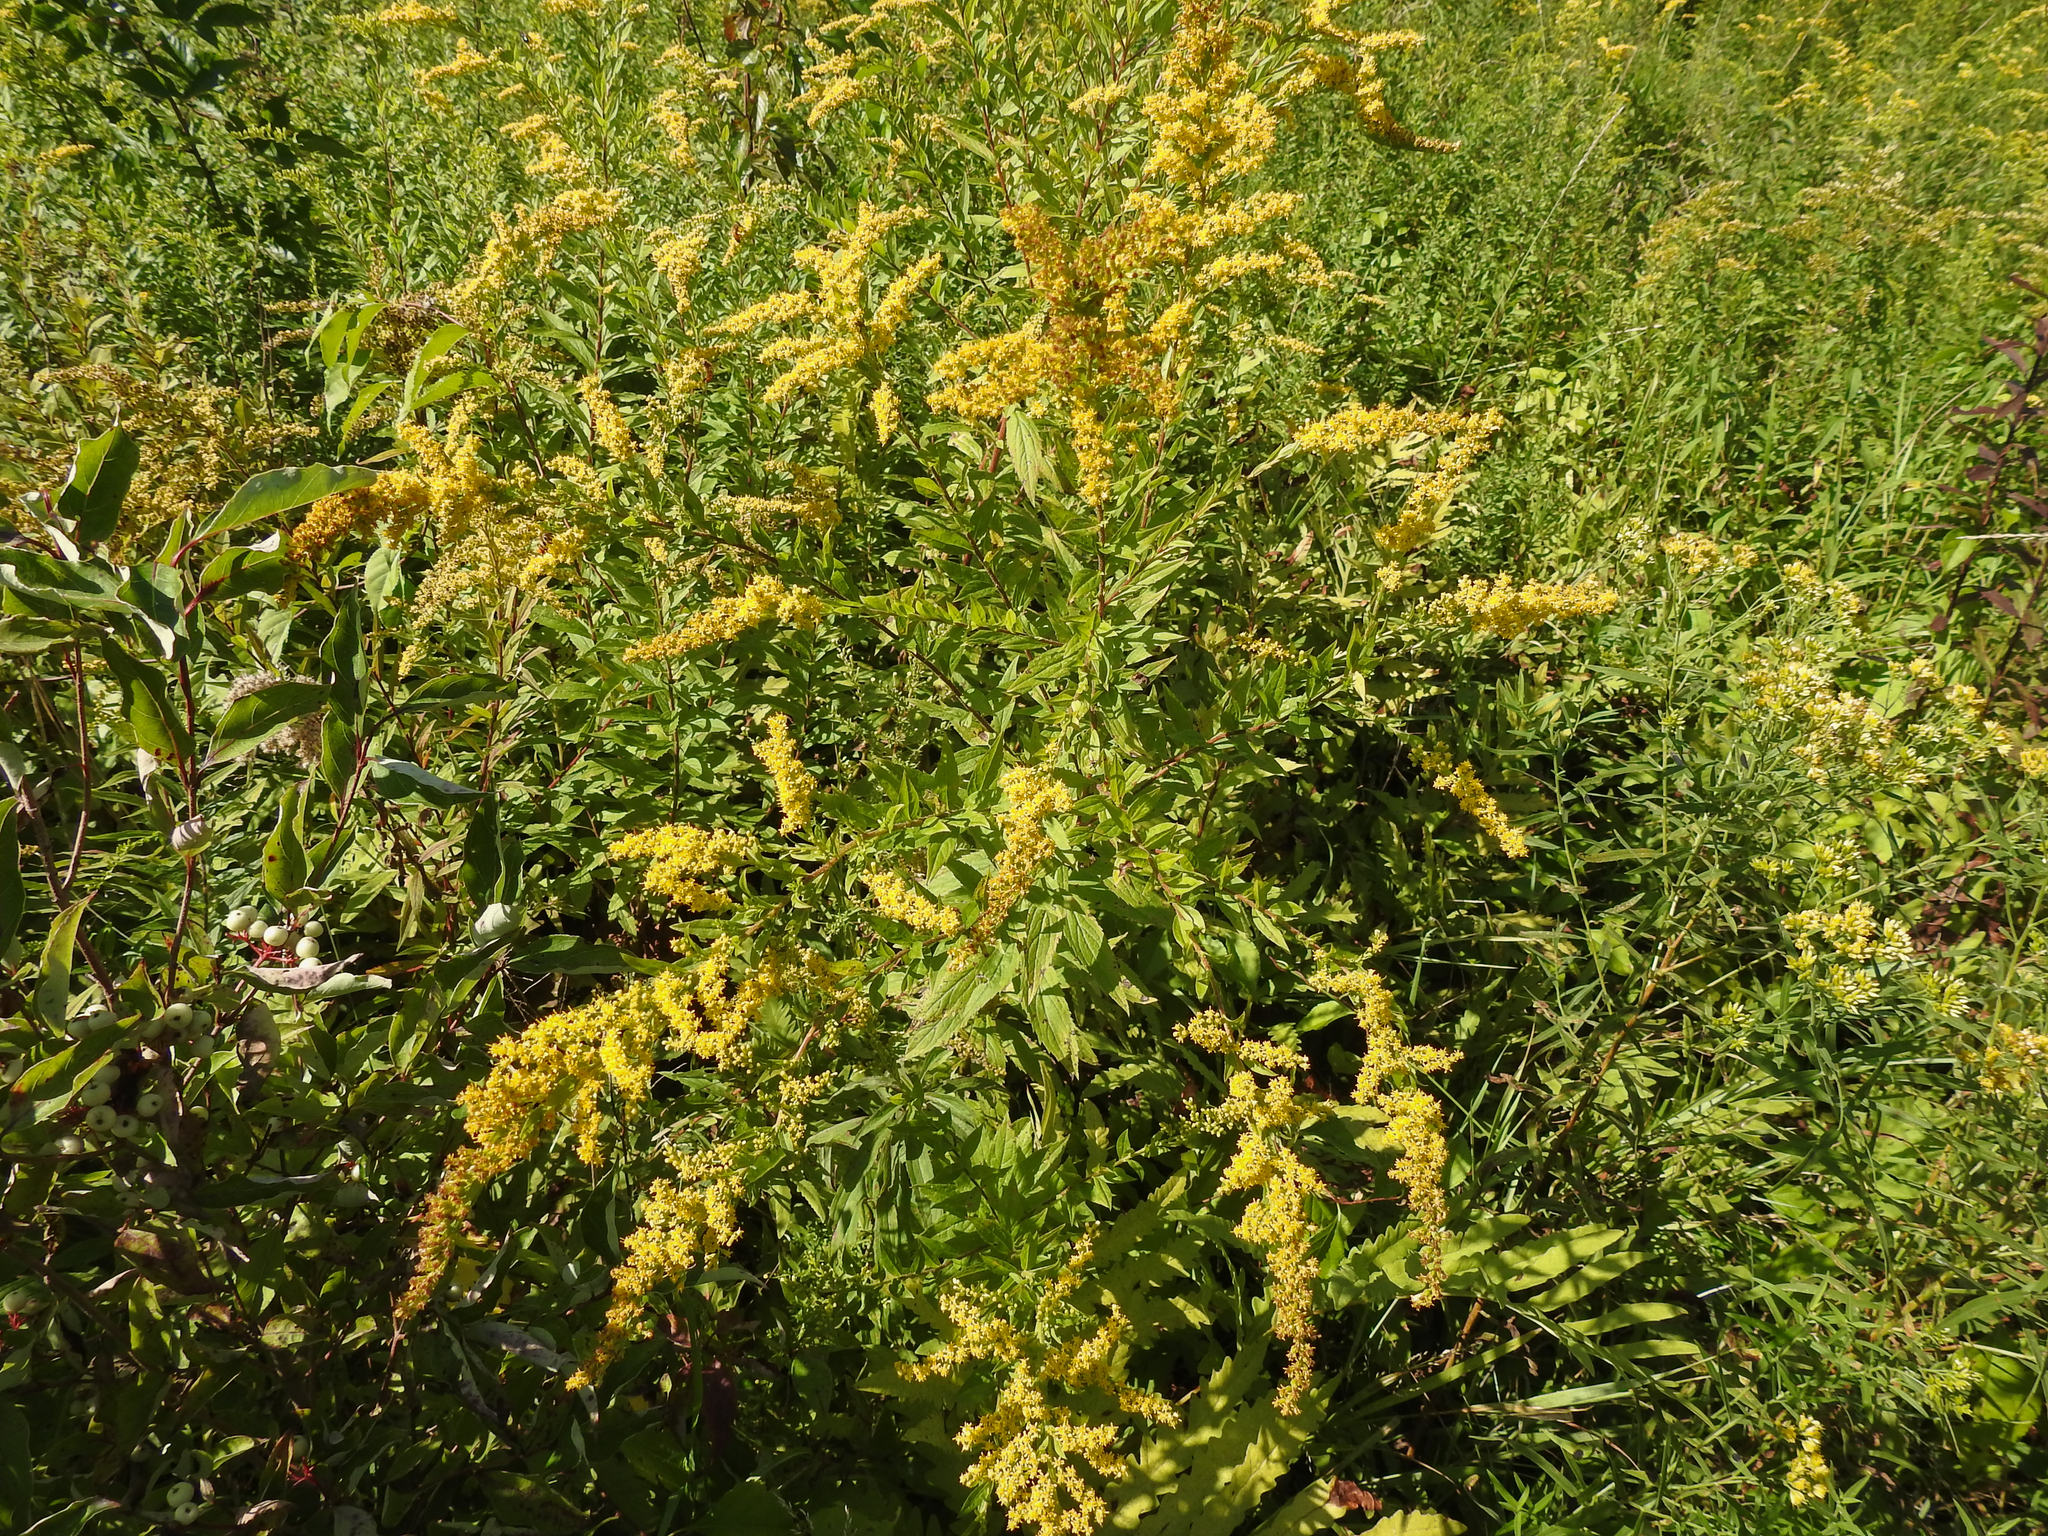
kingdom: Plantae
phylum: Tracheophyta
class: Magnoliopsida
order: Asterales
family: Asteraceae
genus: Solidago
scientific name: Solidago rugosa
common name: Rough-stemmed goldenrod
